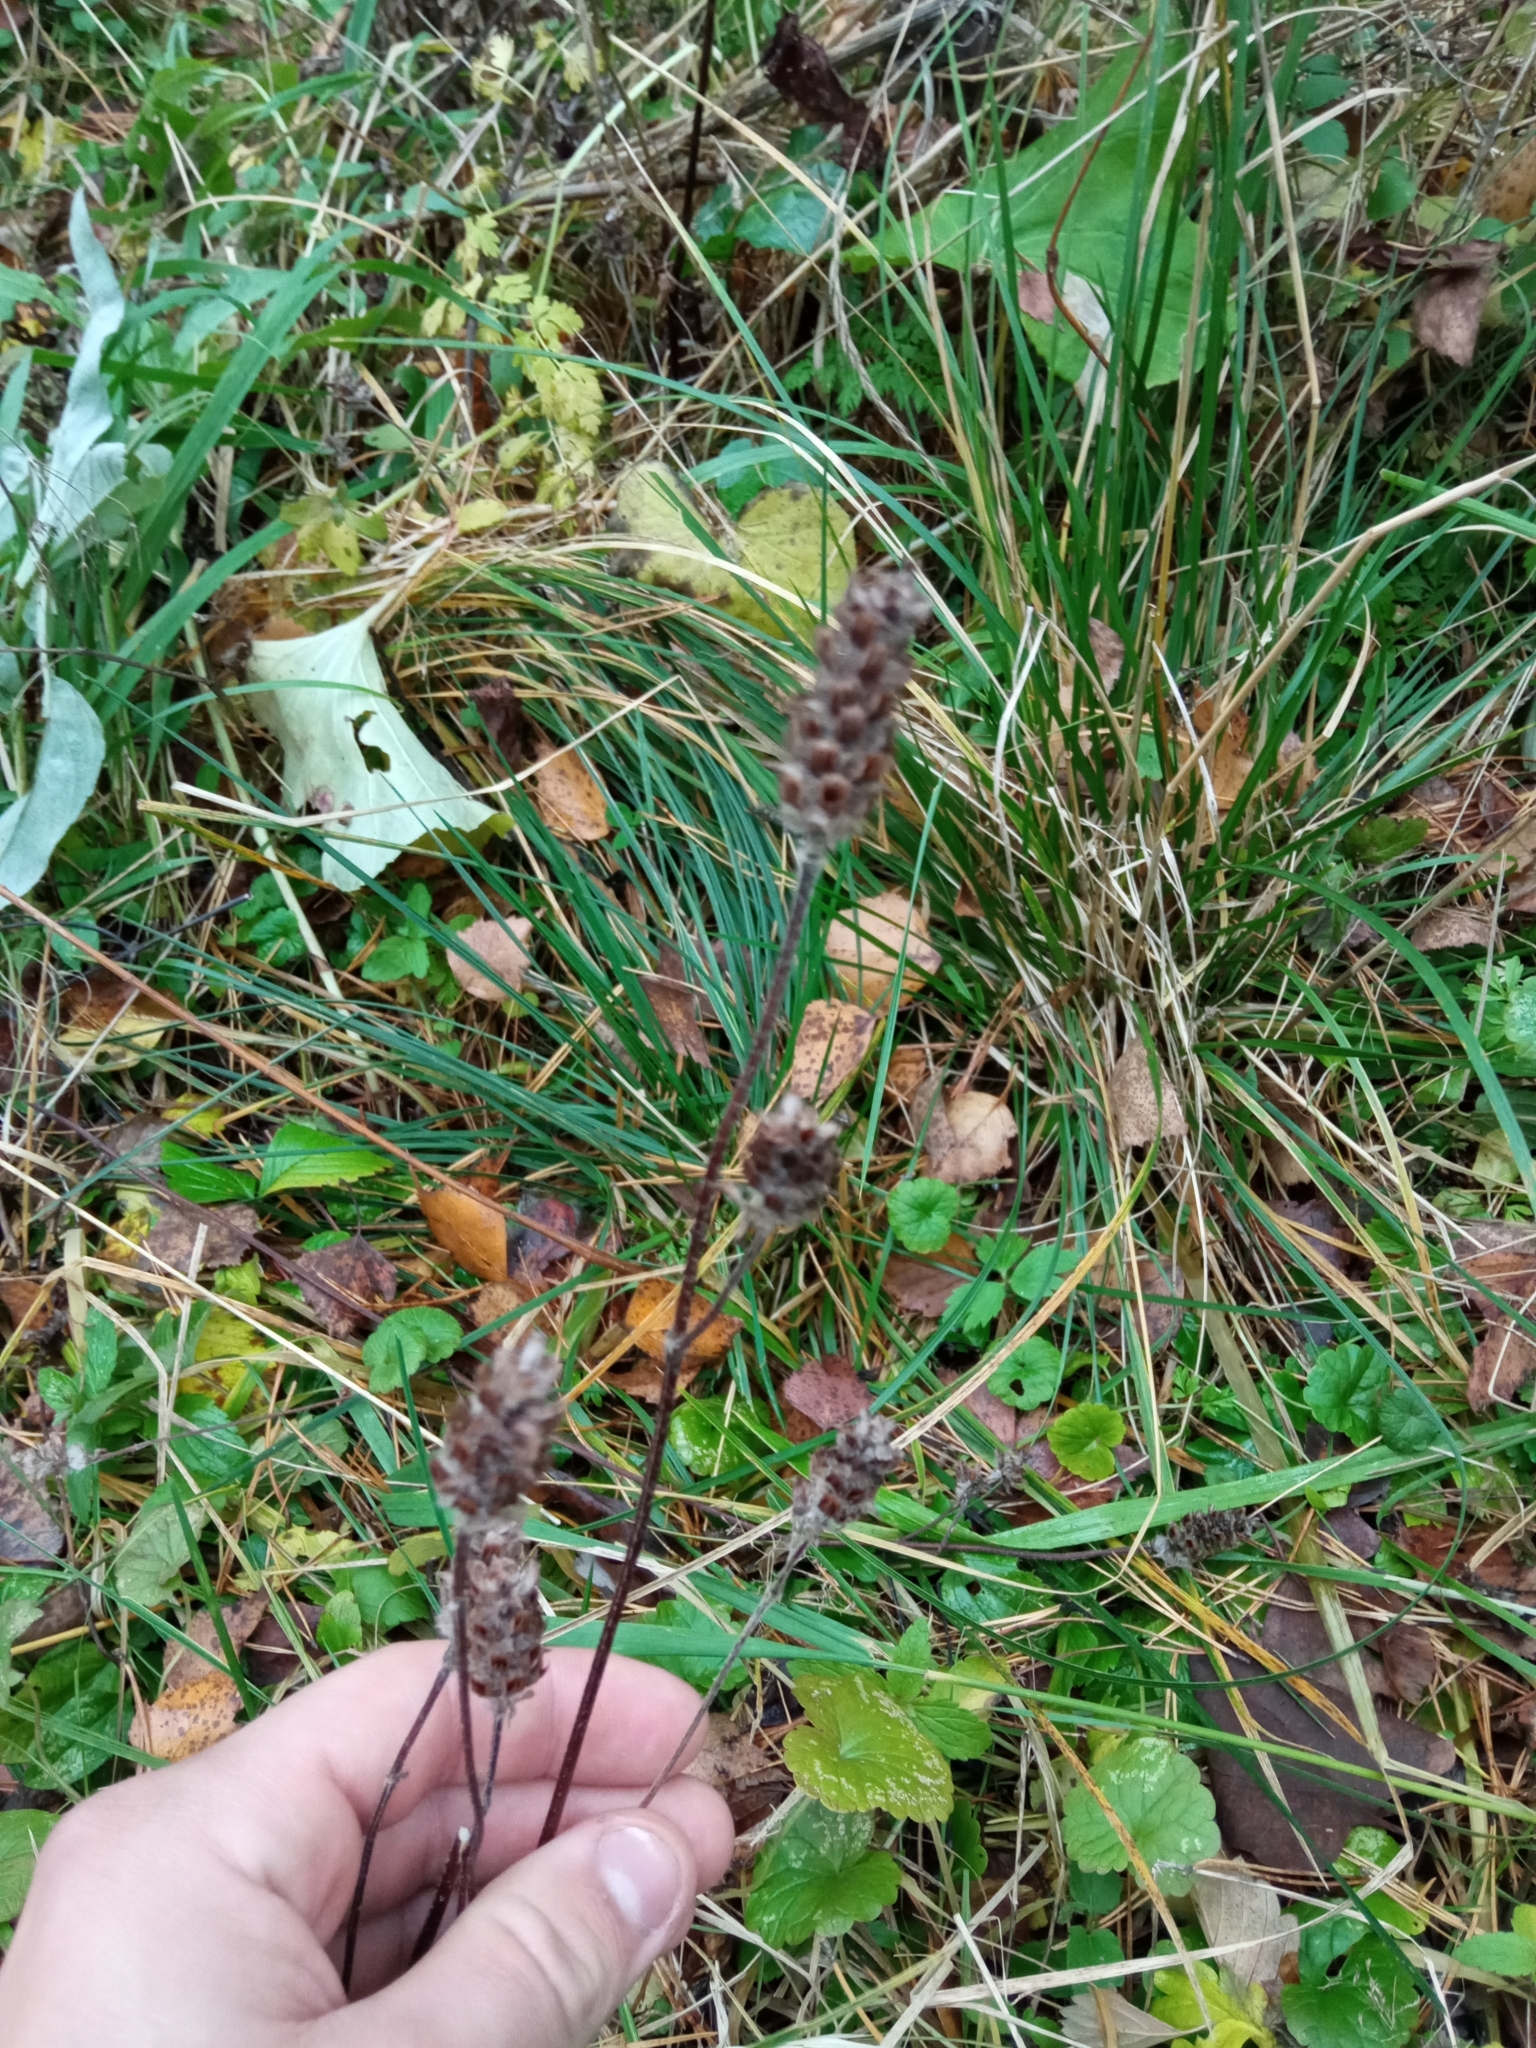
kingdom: Plantae
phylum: Tracheophyta
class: Magnoliopsida
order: Lamiales
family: Lamiaceae
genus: Prunella
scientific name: Prunella vulgaris
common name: Heal-all
